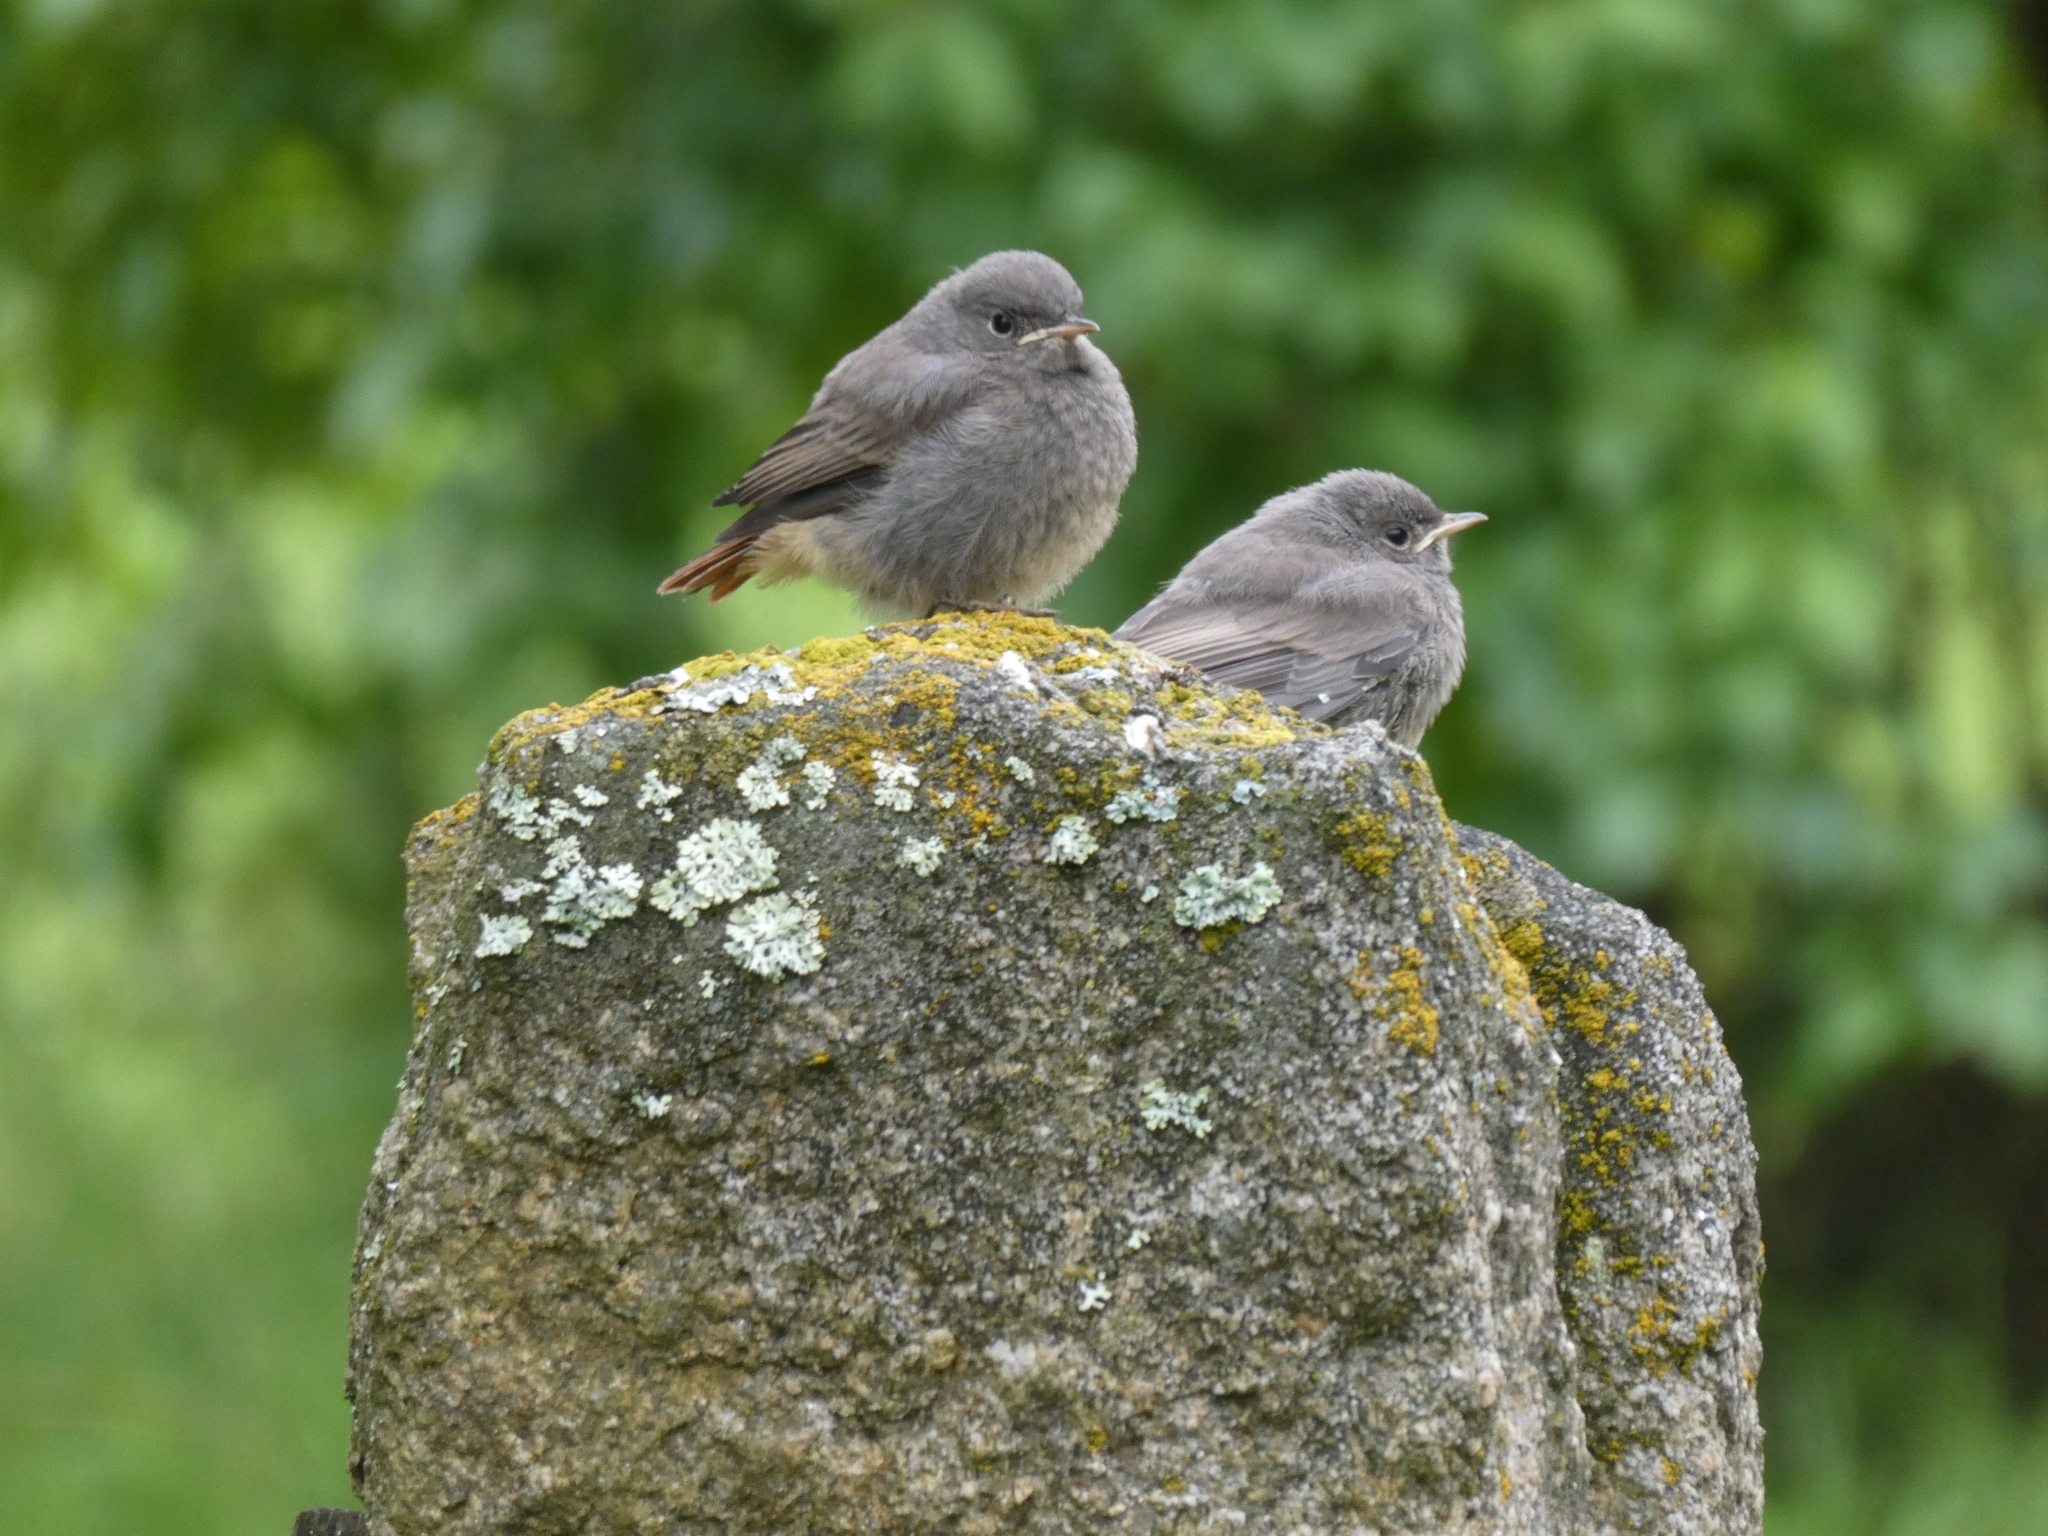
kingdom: Animalia
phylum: Chordata
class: Aves
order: Passeriformes
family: Muscicapidae
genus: Phoenicurus
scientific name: Phoenicurus ochruros
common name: Black redstart
